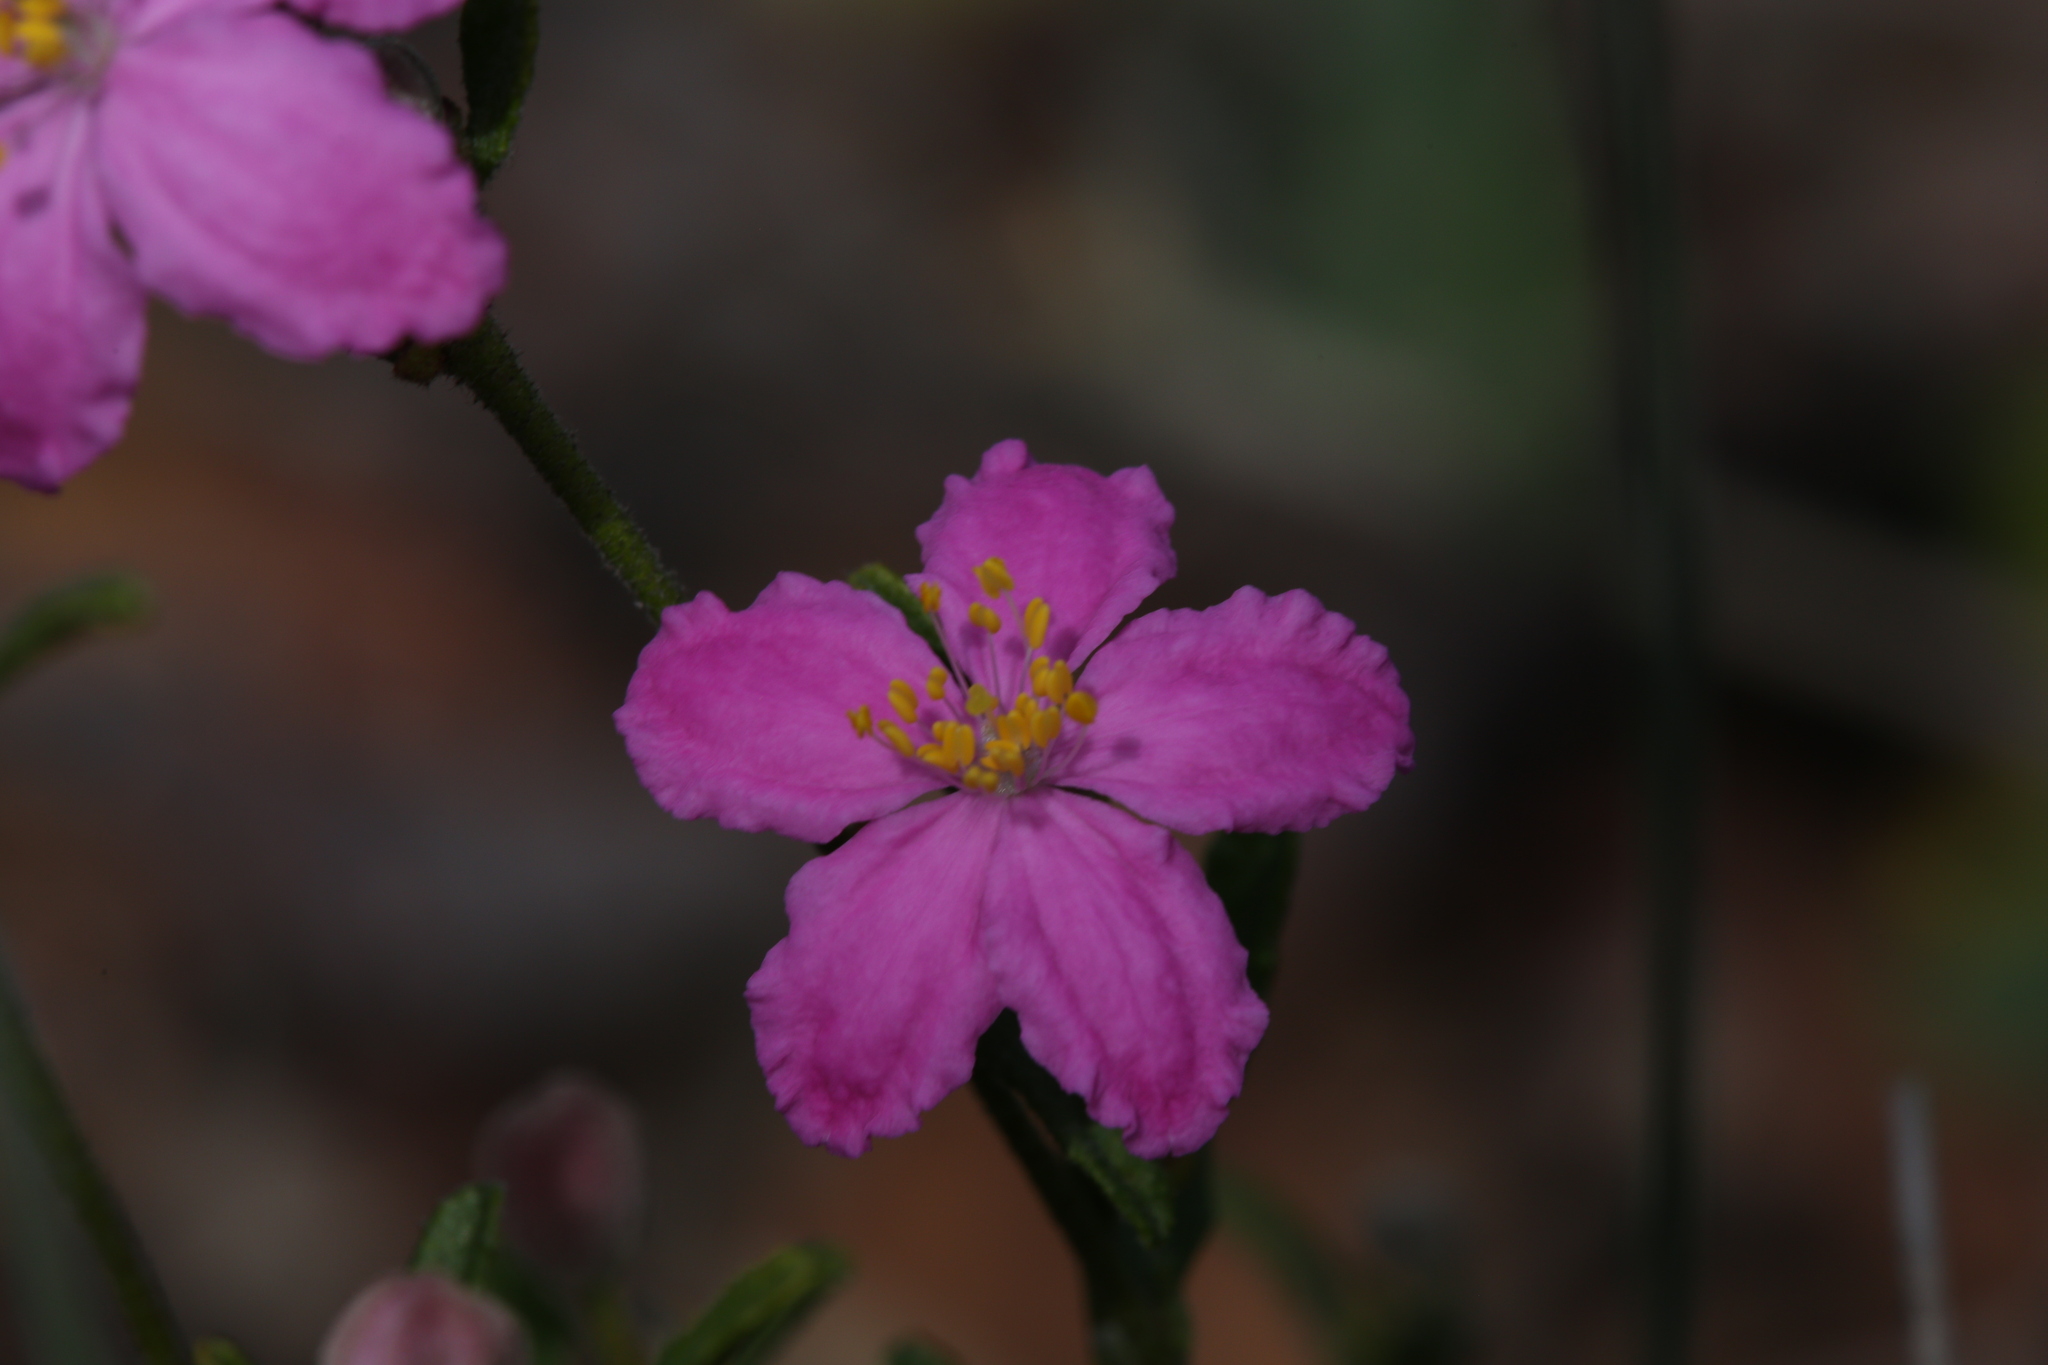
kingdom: Plantae
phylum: Tracheophyta
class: Magnoliopsida
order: Sapindales
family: Rutaceae
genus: Asterolasia
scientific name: Asterolasia grandiflora
